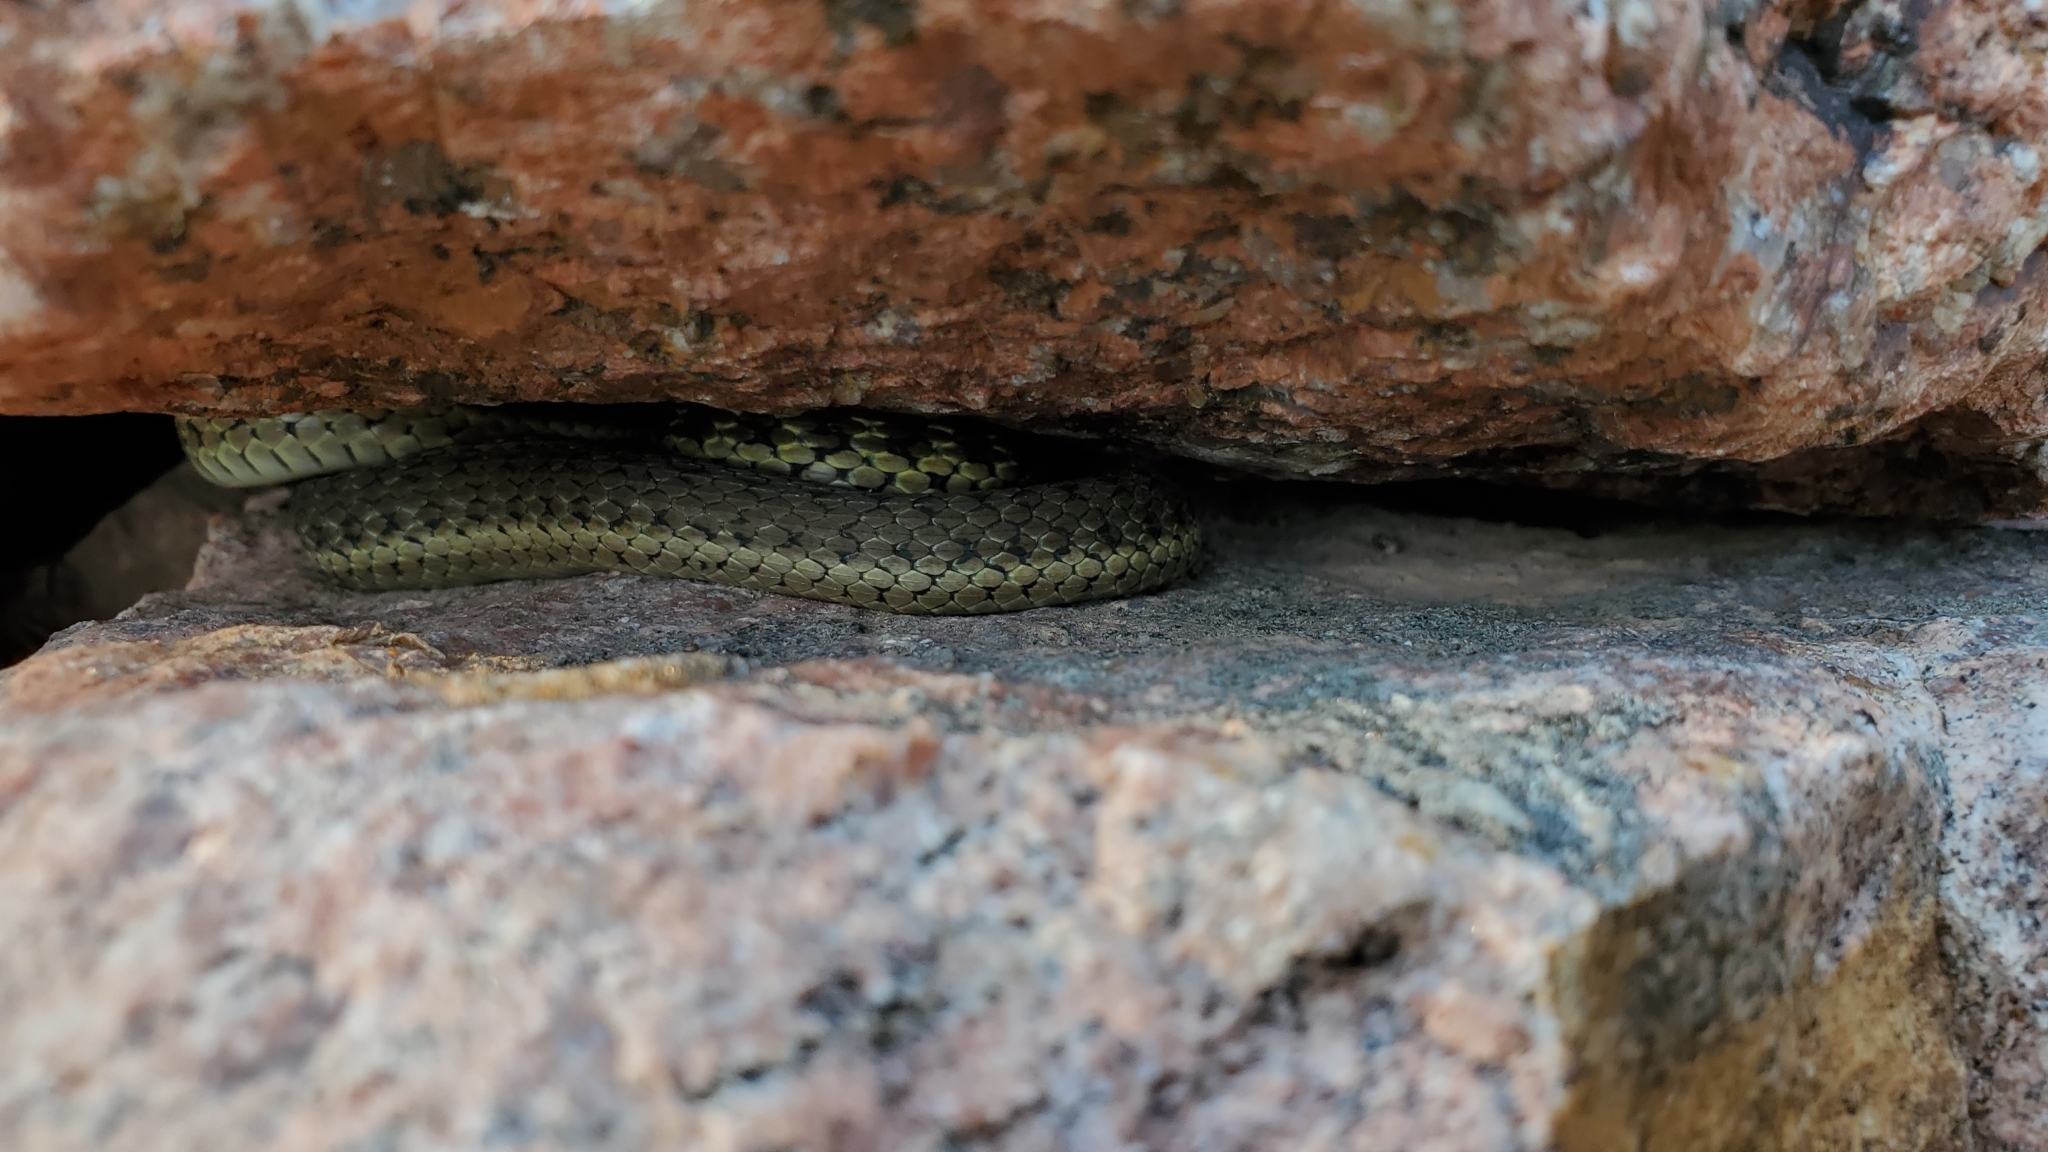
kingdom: Animalia
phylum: Chordata
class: Squamata
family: Colubridae
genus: Thamnophis
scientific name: Thamnophis elegans
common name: Western terrestrial garter snake
